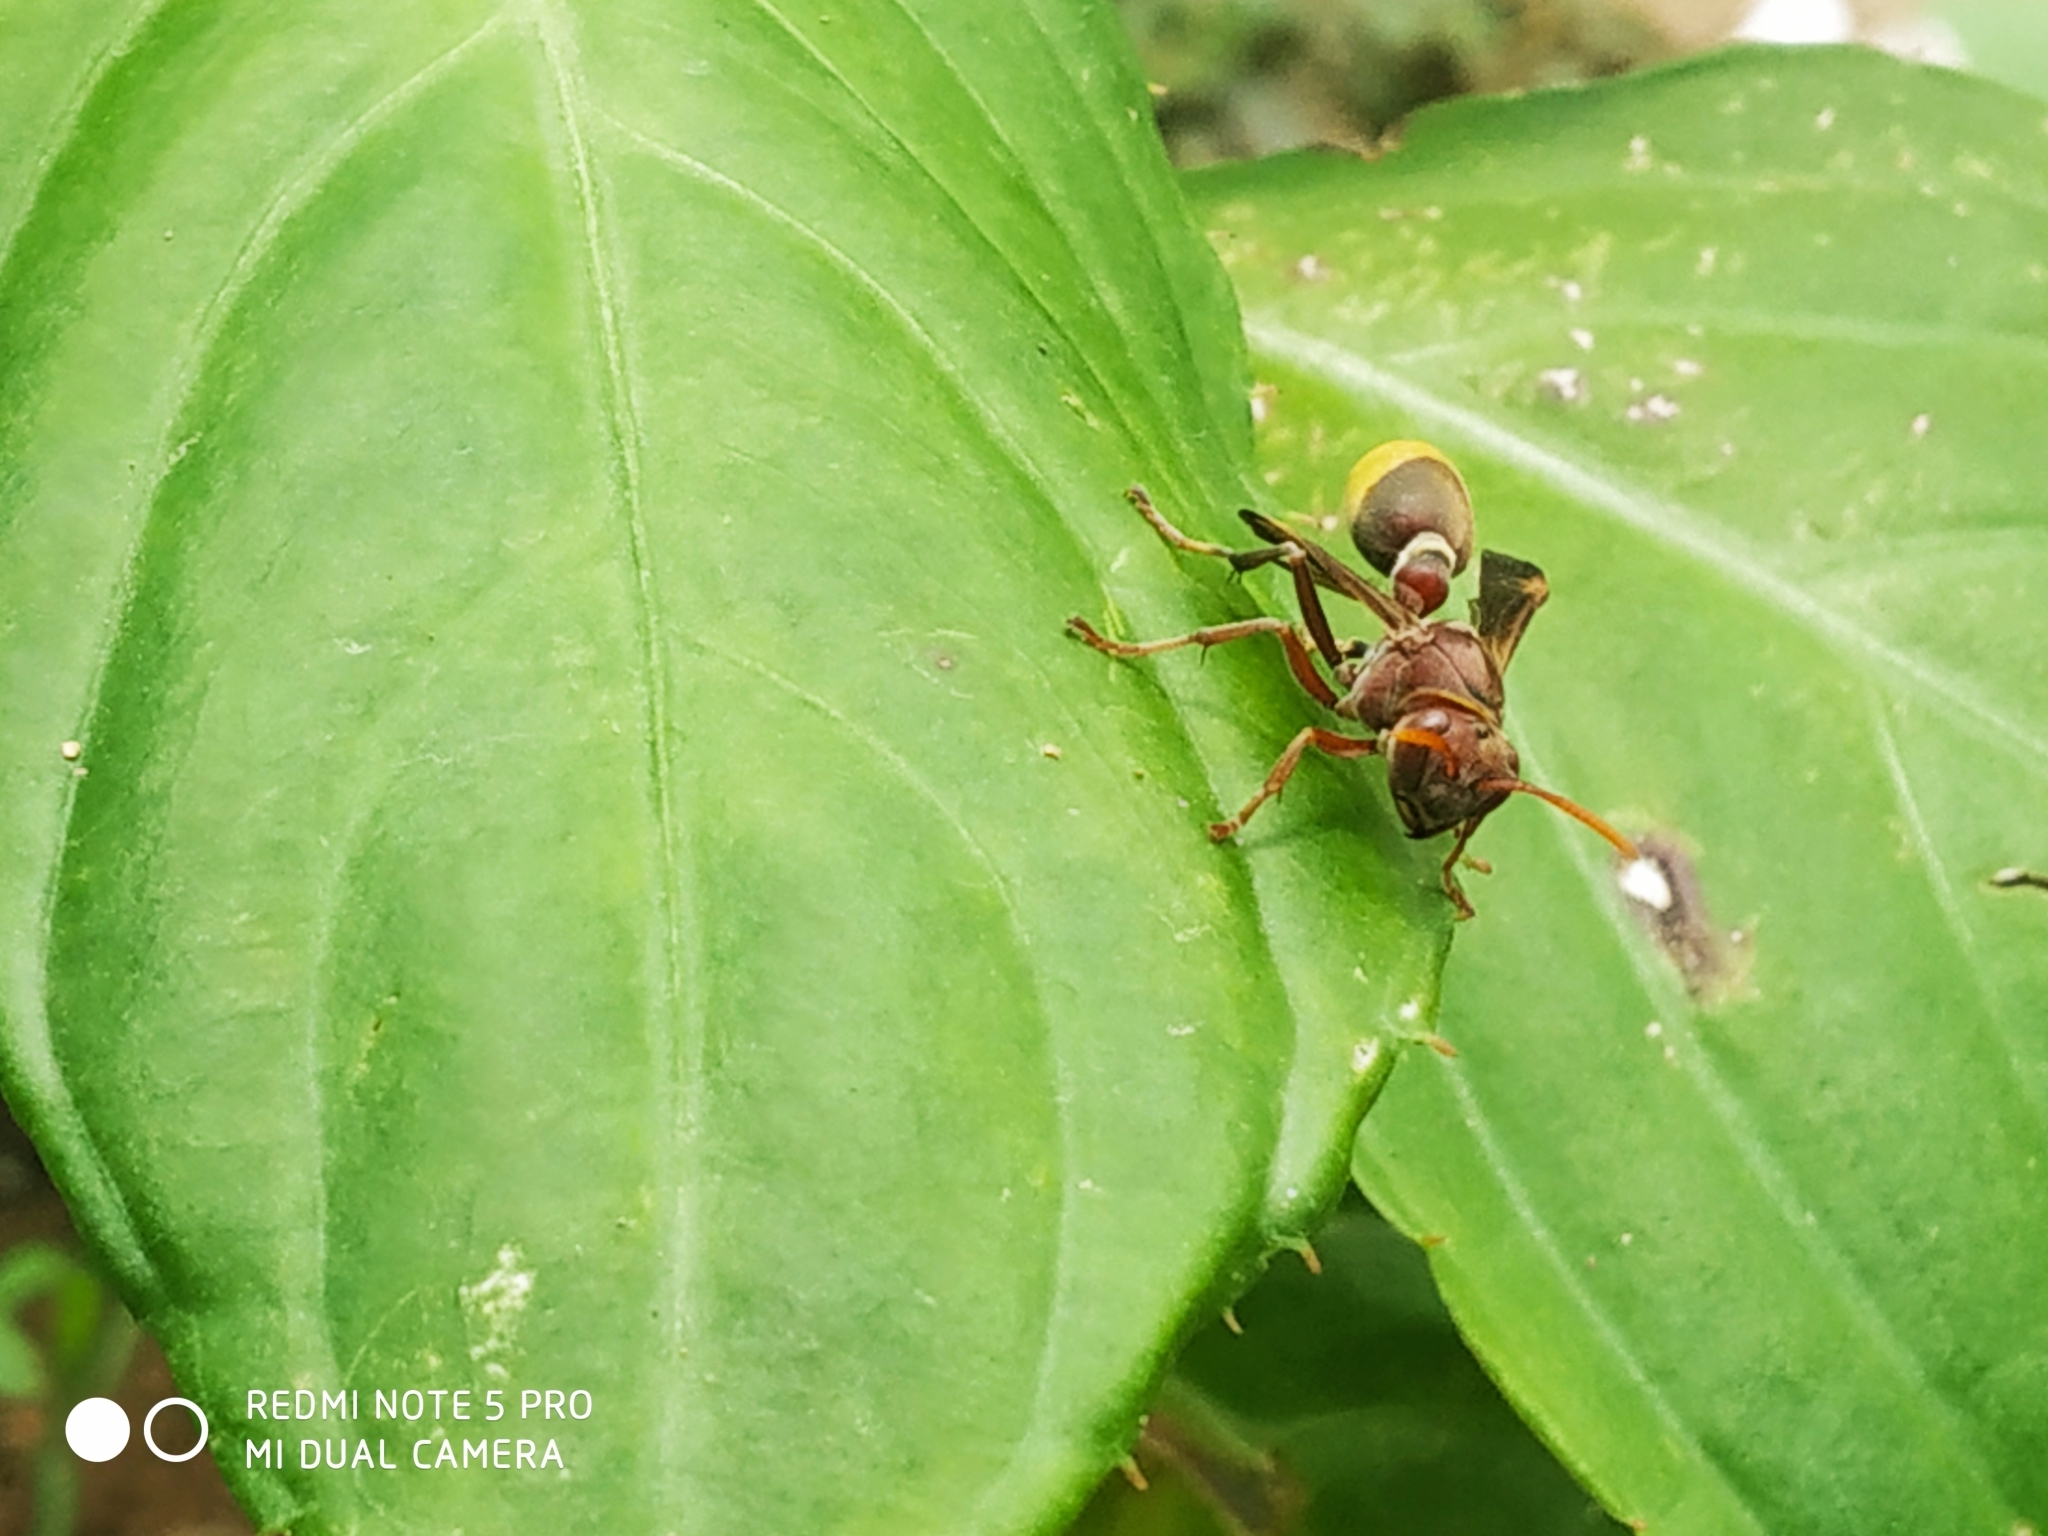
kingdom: Animalia
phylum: Arthropoda
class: Insecta
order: Hymenoptera
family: Vespidae
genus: Ropalidia
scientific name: Ropalidia
